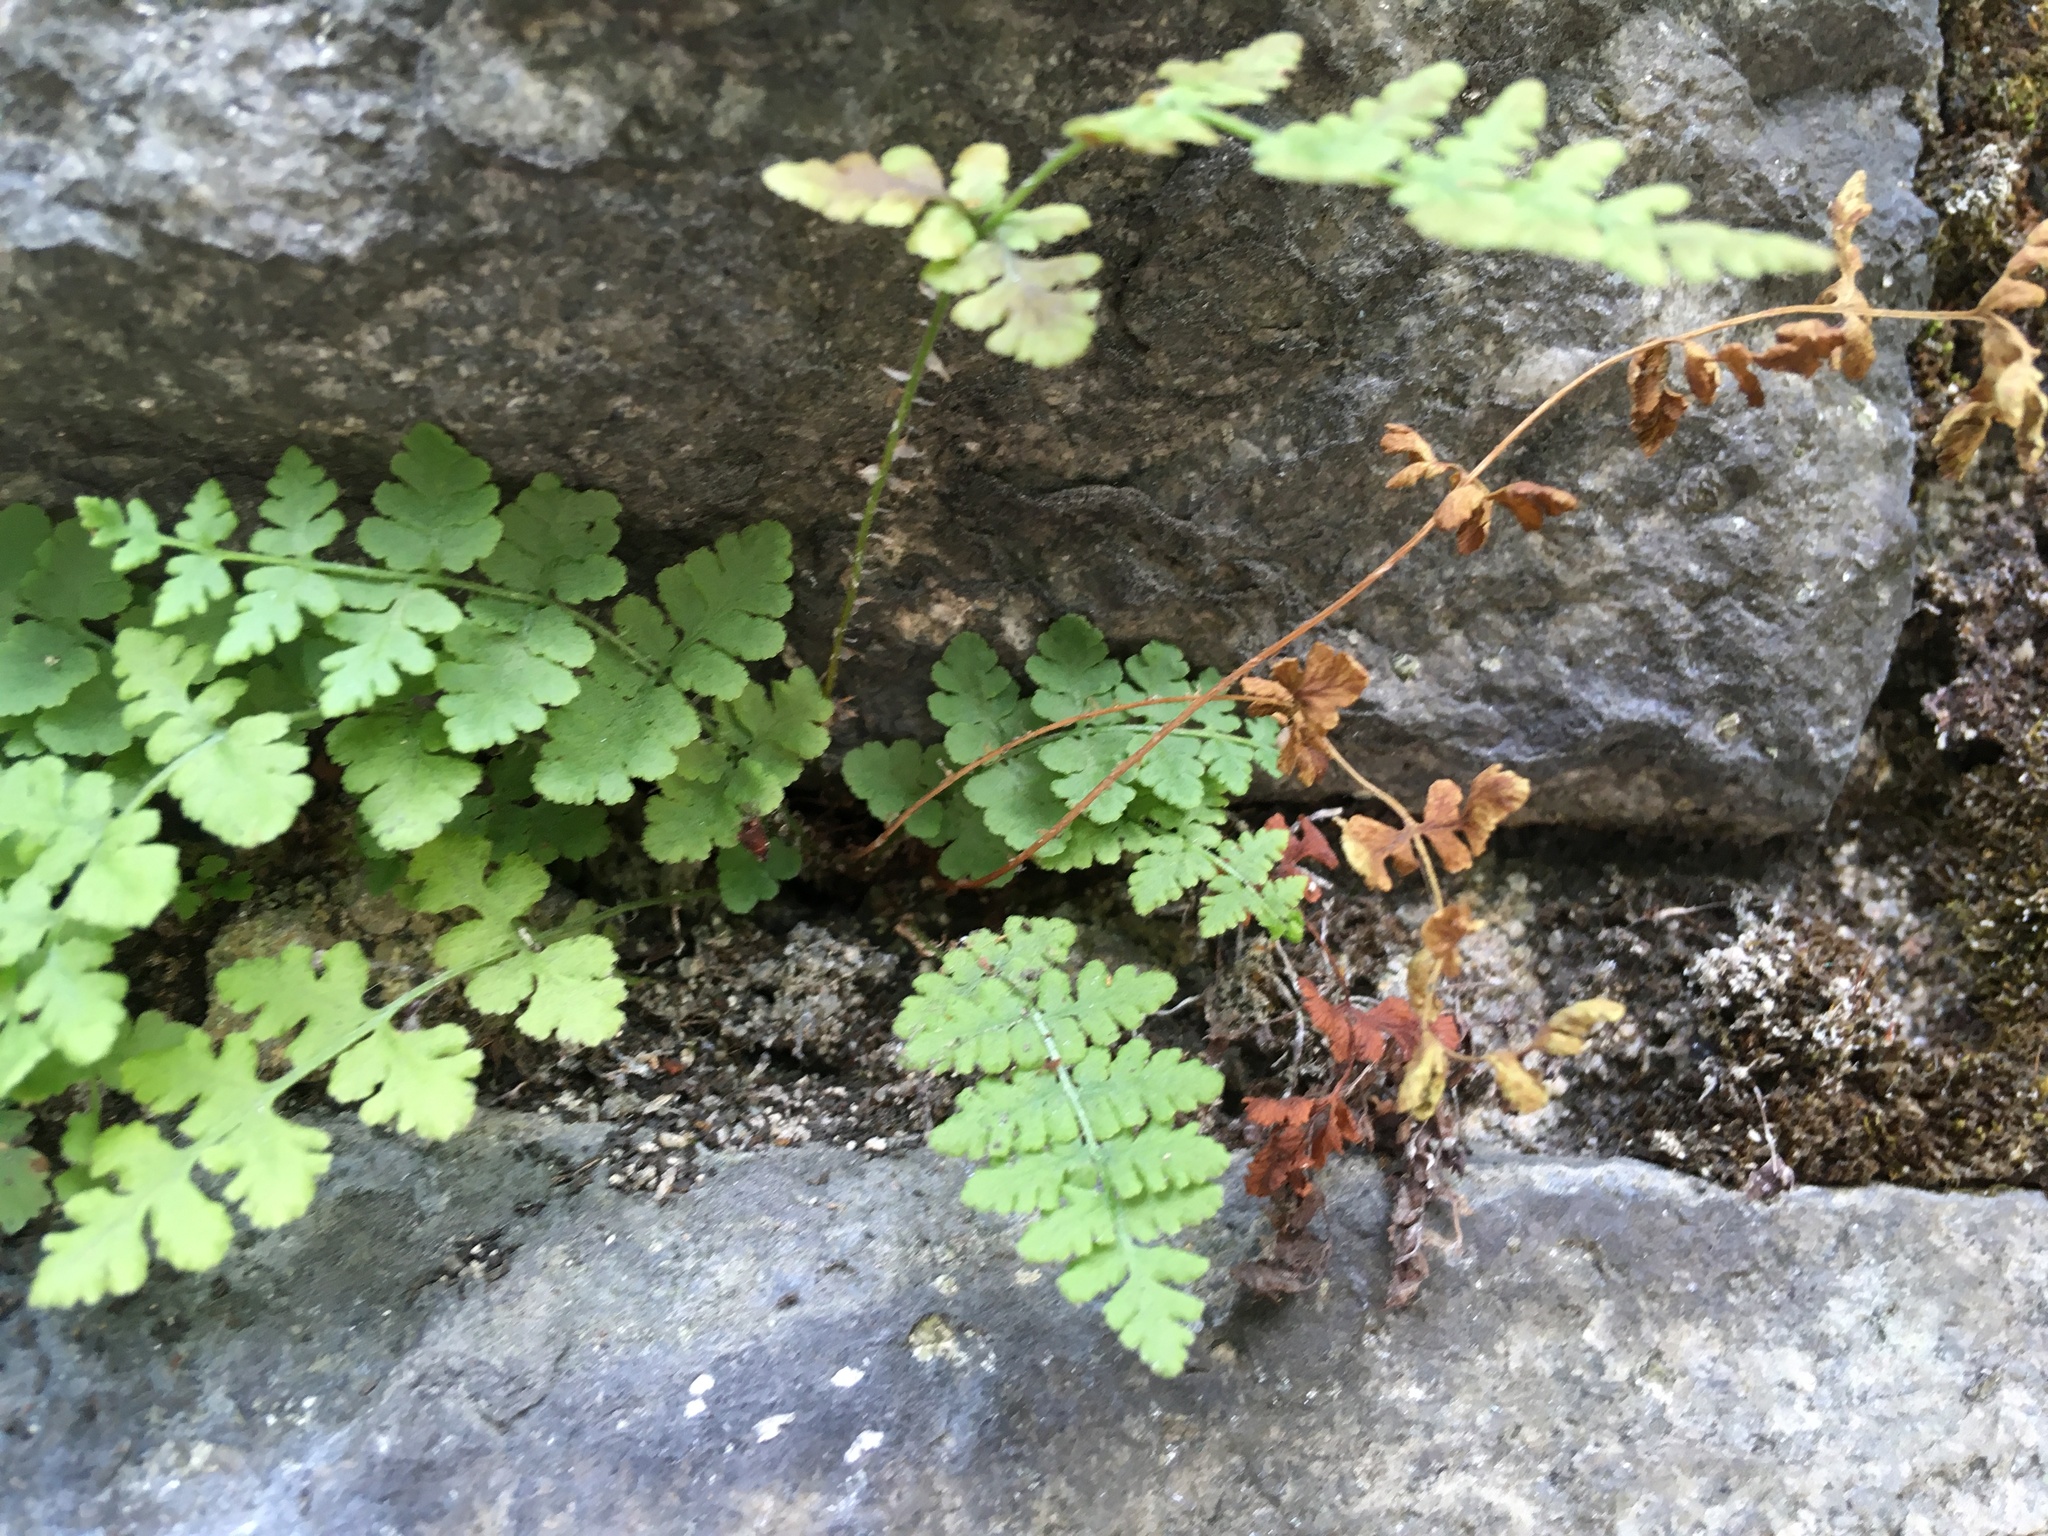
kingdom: Plantae
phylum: Tracheophyta
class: Polypodiopsida
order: Polypodiales
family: Woodsiaceae
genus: Physematium
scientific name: Physematium obtusum
